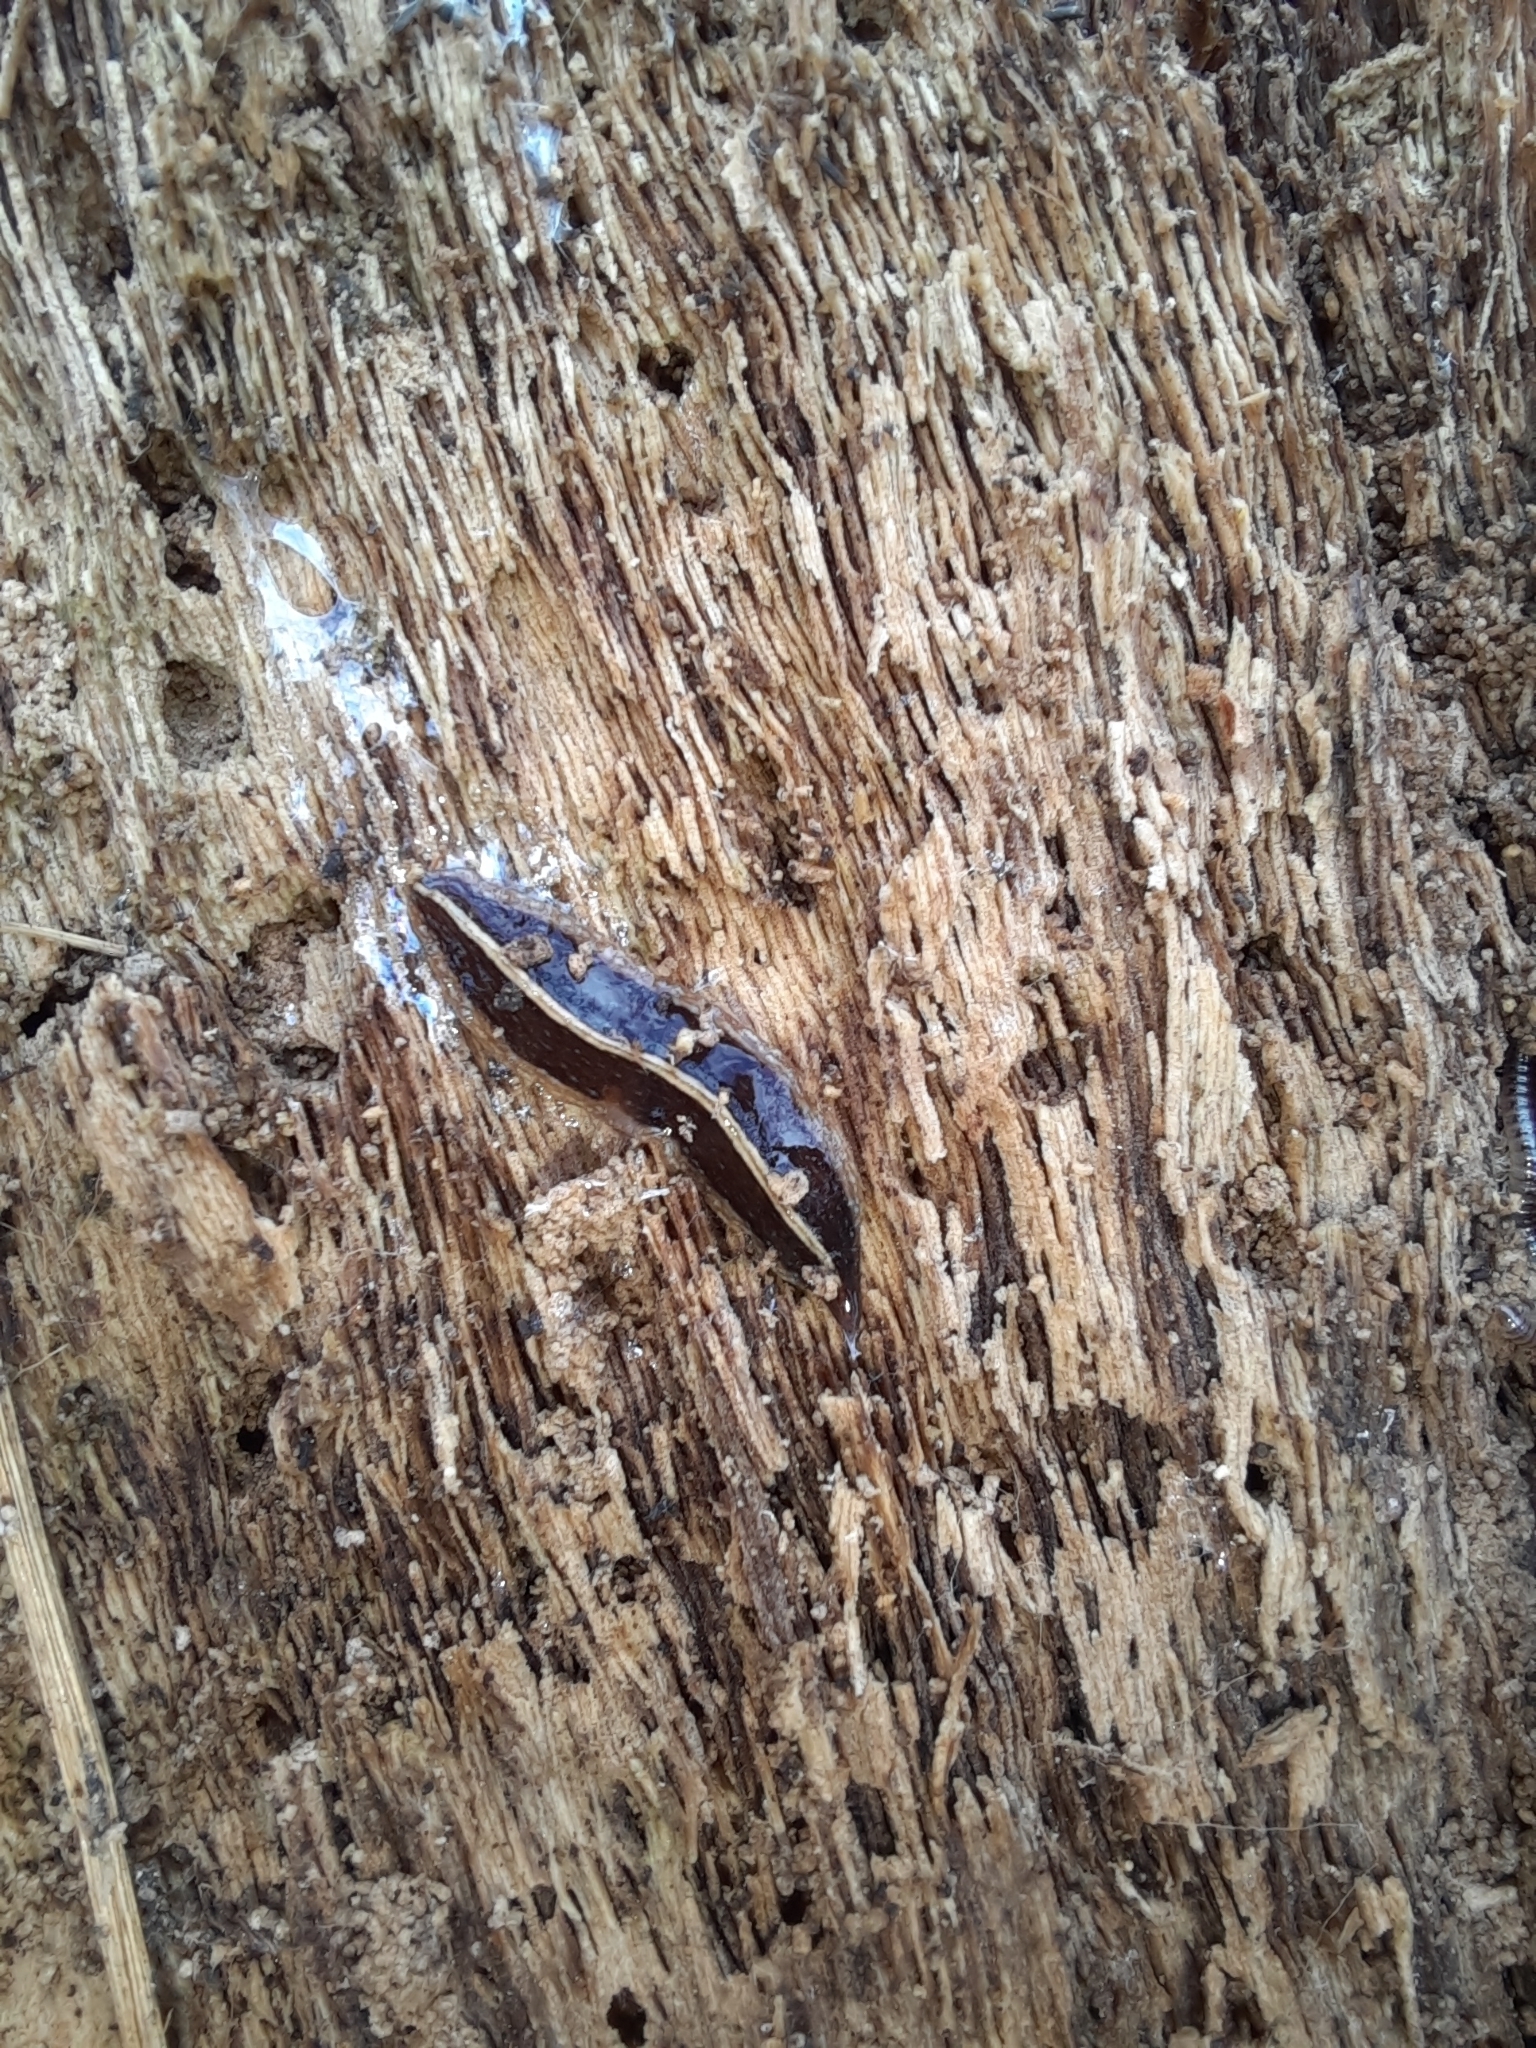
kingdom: Animalia
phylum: Platyhelminthes
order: Tricladida
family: Geoplanidae
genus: Newzealandia
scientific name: Newzealandia graffii
